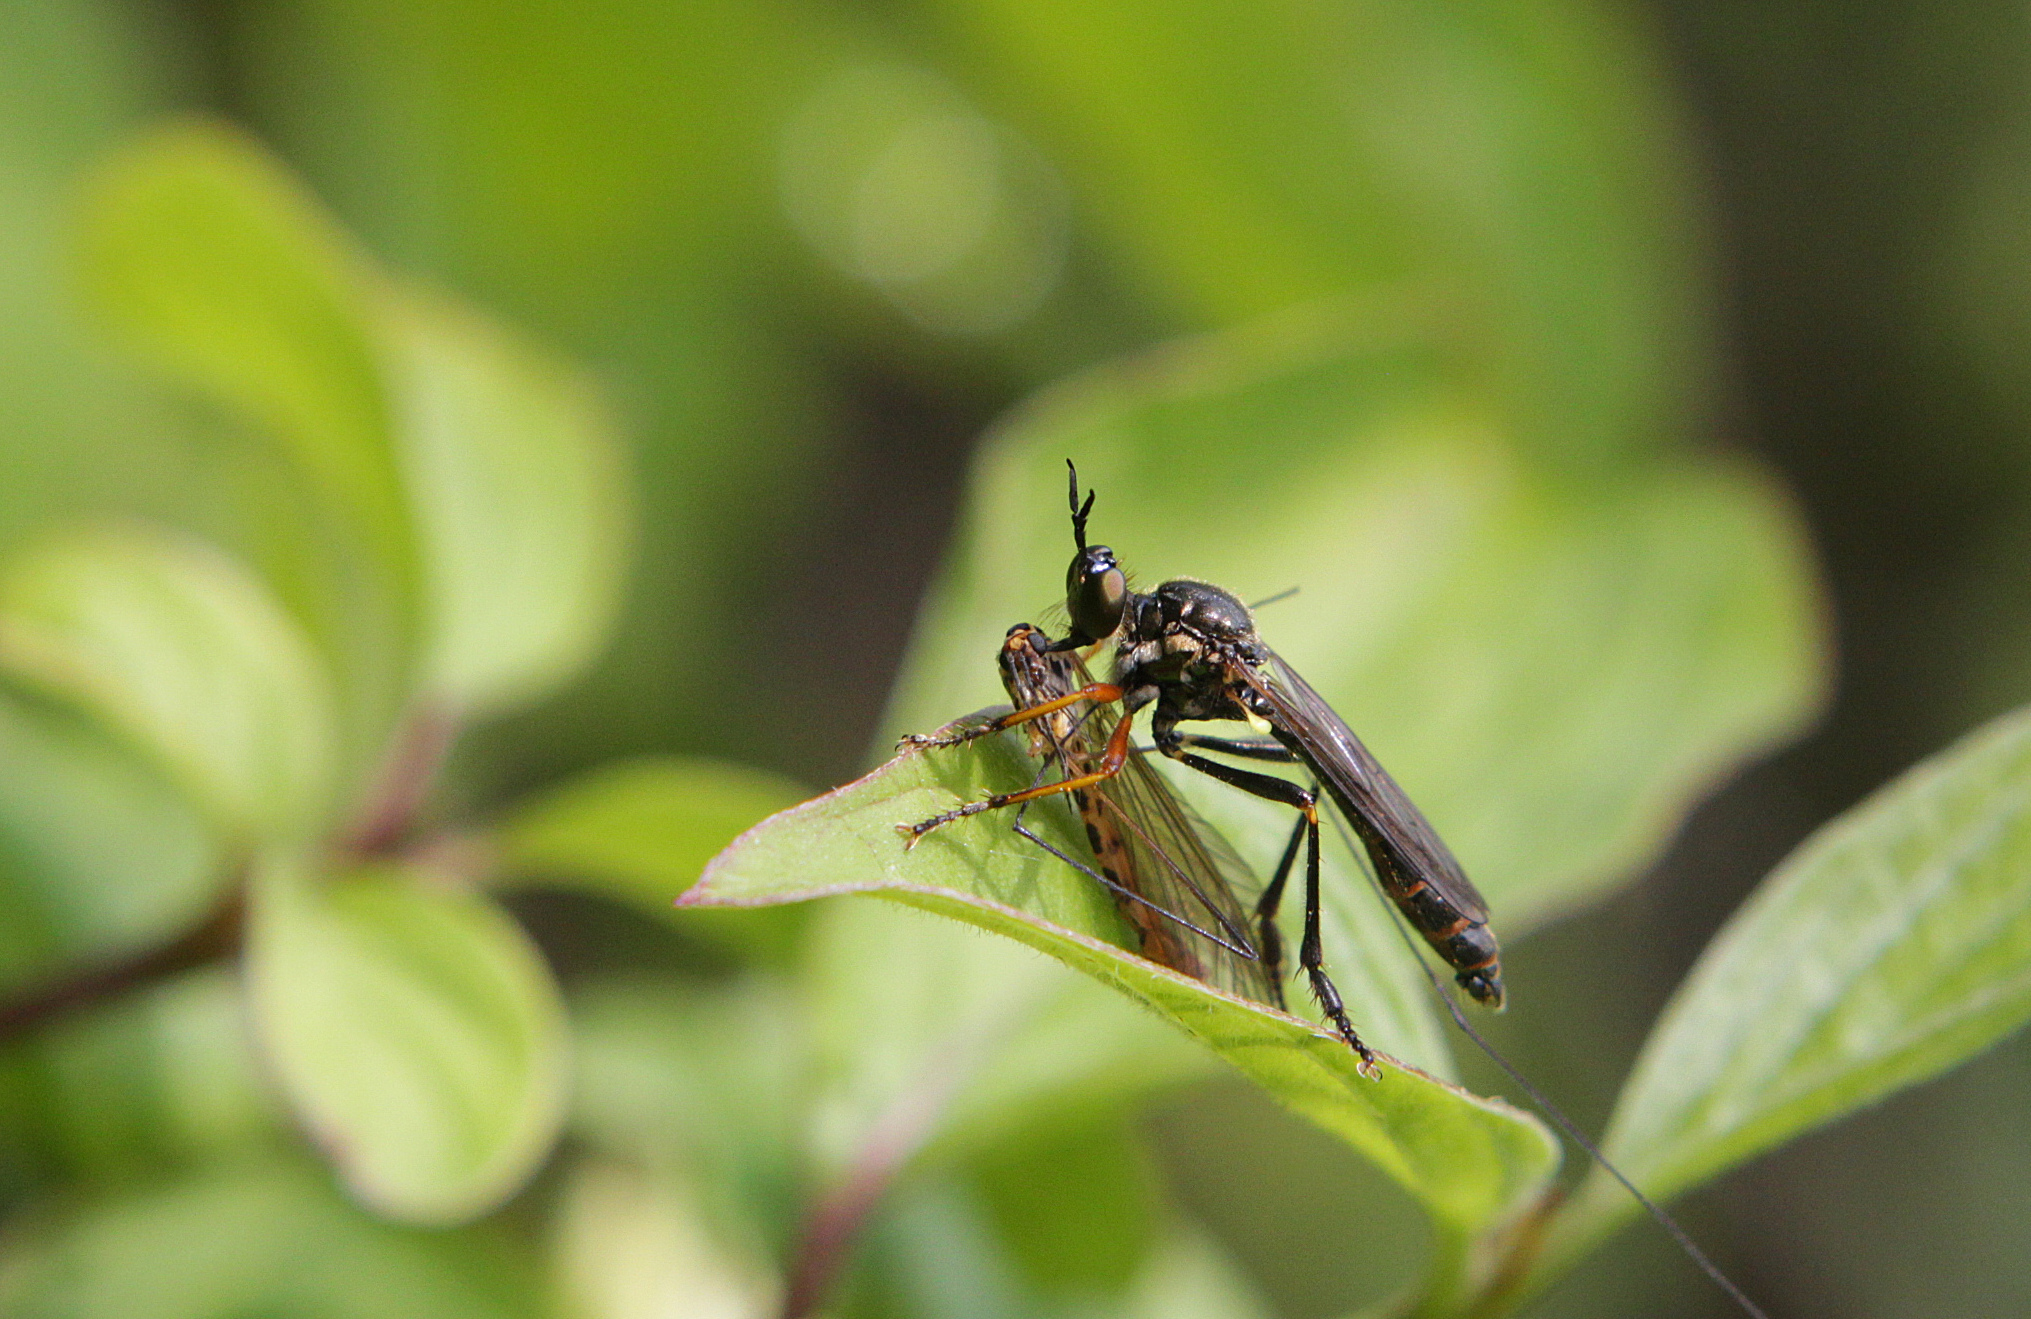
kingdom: Animalia
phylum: Arthropoda
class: Insecta
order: Diptera
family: Asilidae
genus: Dioctria
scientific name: Dioctria rufipes
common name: Common red-legged robberfly
